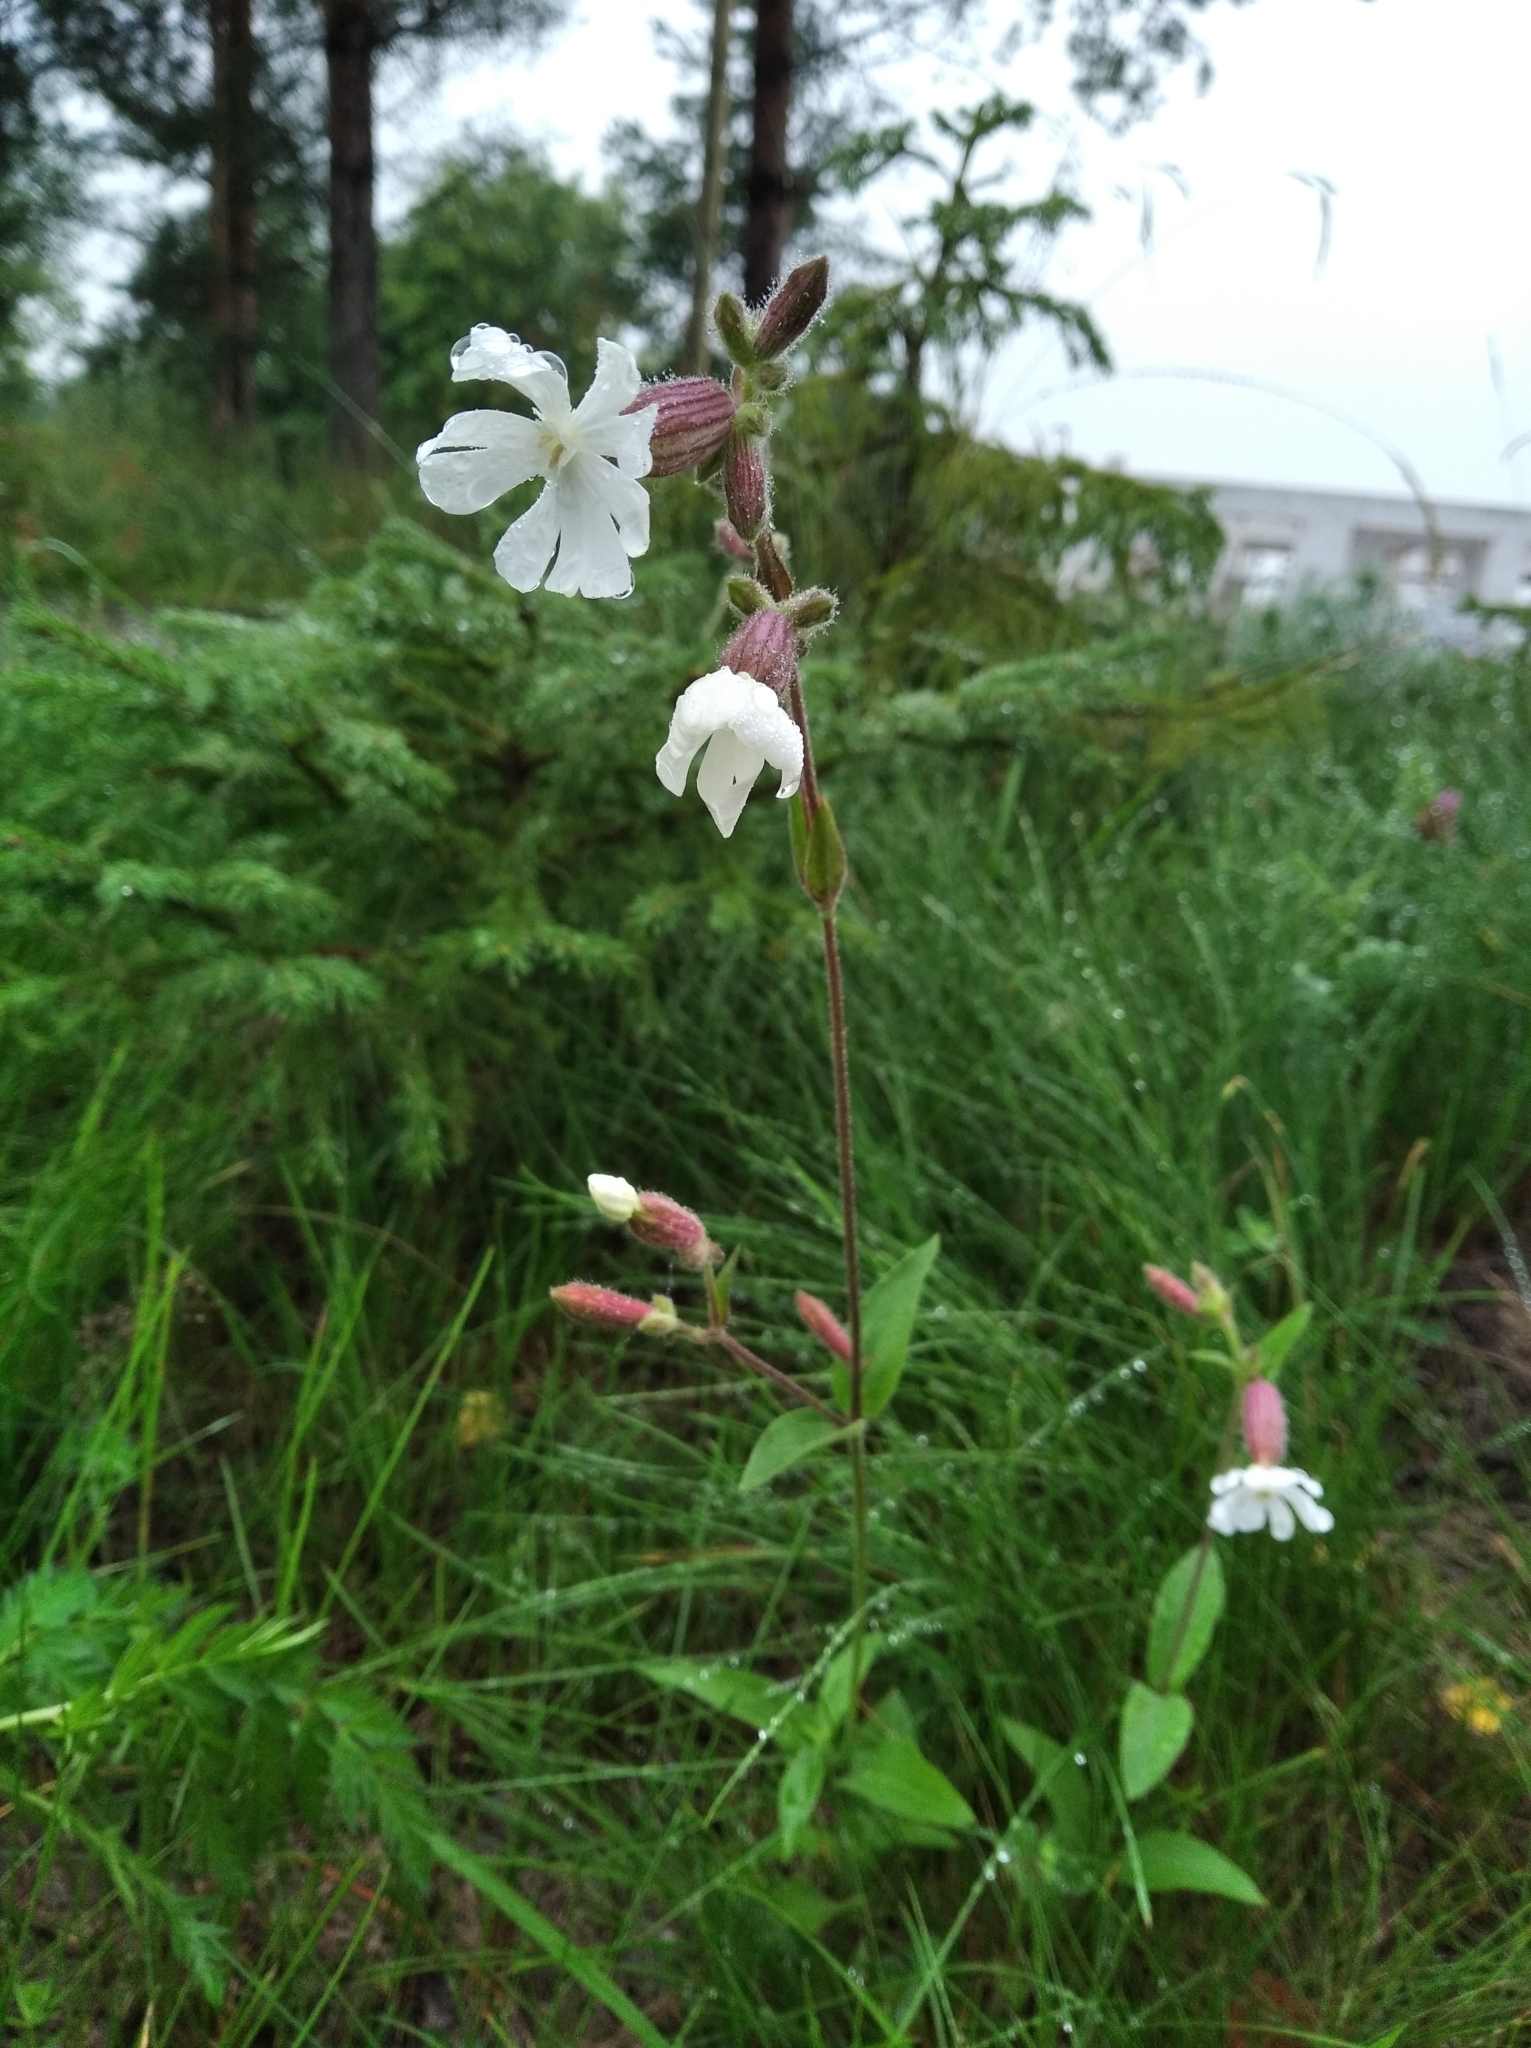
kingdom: Plantae
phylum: Tracheophyta
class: Magnoliopsida
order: Caryophyllales
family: Caryophyllaceae
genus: Silene
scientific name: Silene latifolia
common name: White campion
